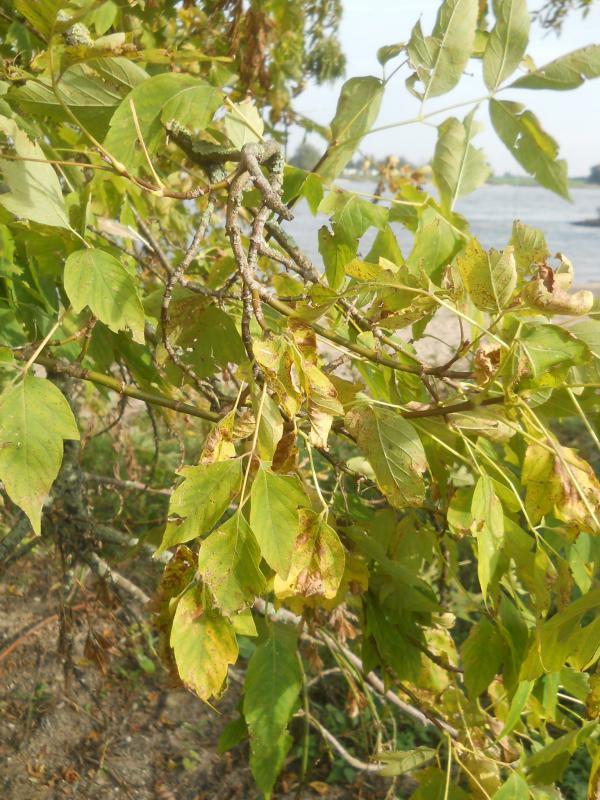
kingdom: Plantae
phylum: Tracheophyta
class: Magnoliopsida
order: Sapindales
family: Sapindaceae
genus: Acer
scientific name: Acer negundo
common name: Ashleaf maple
